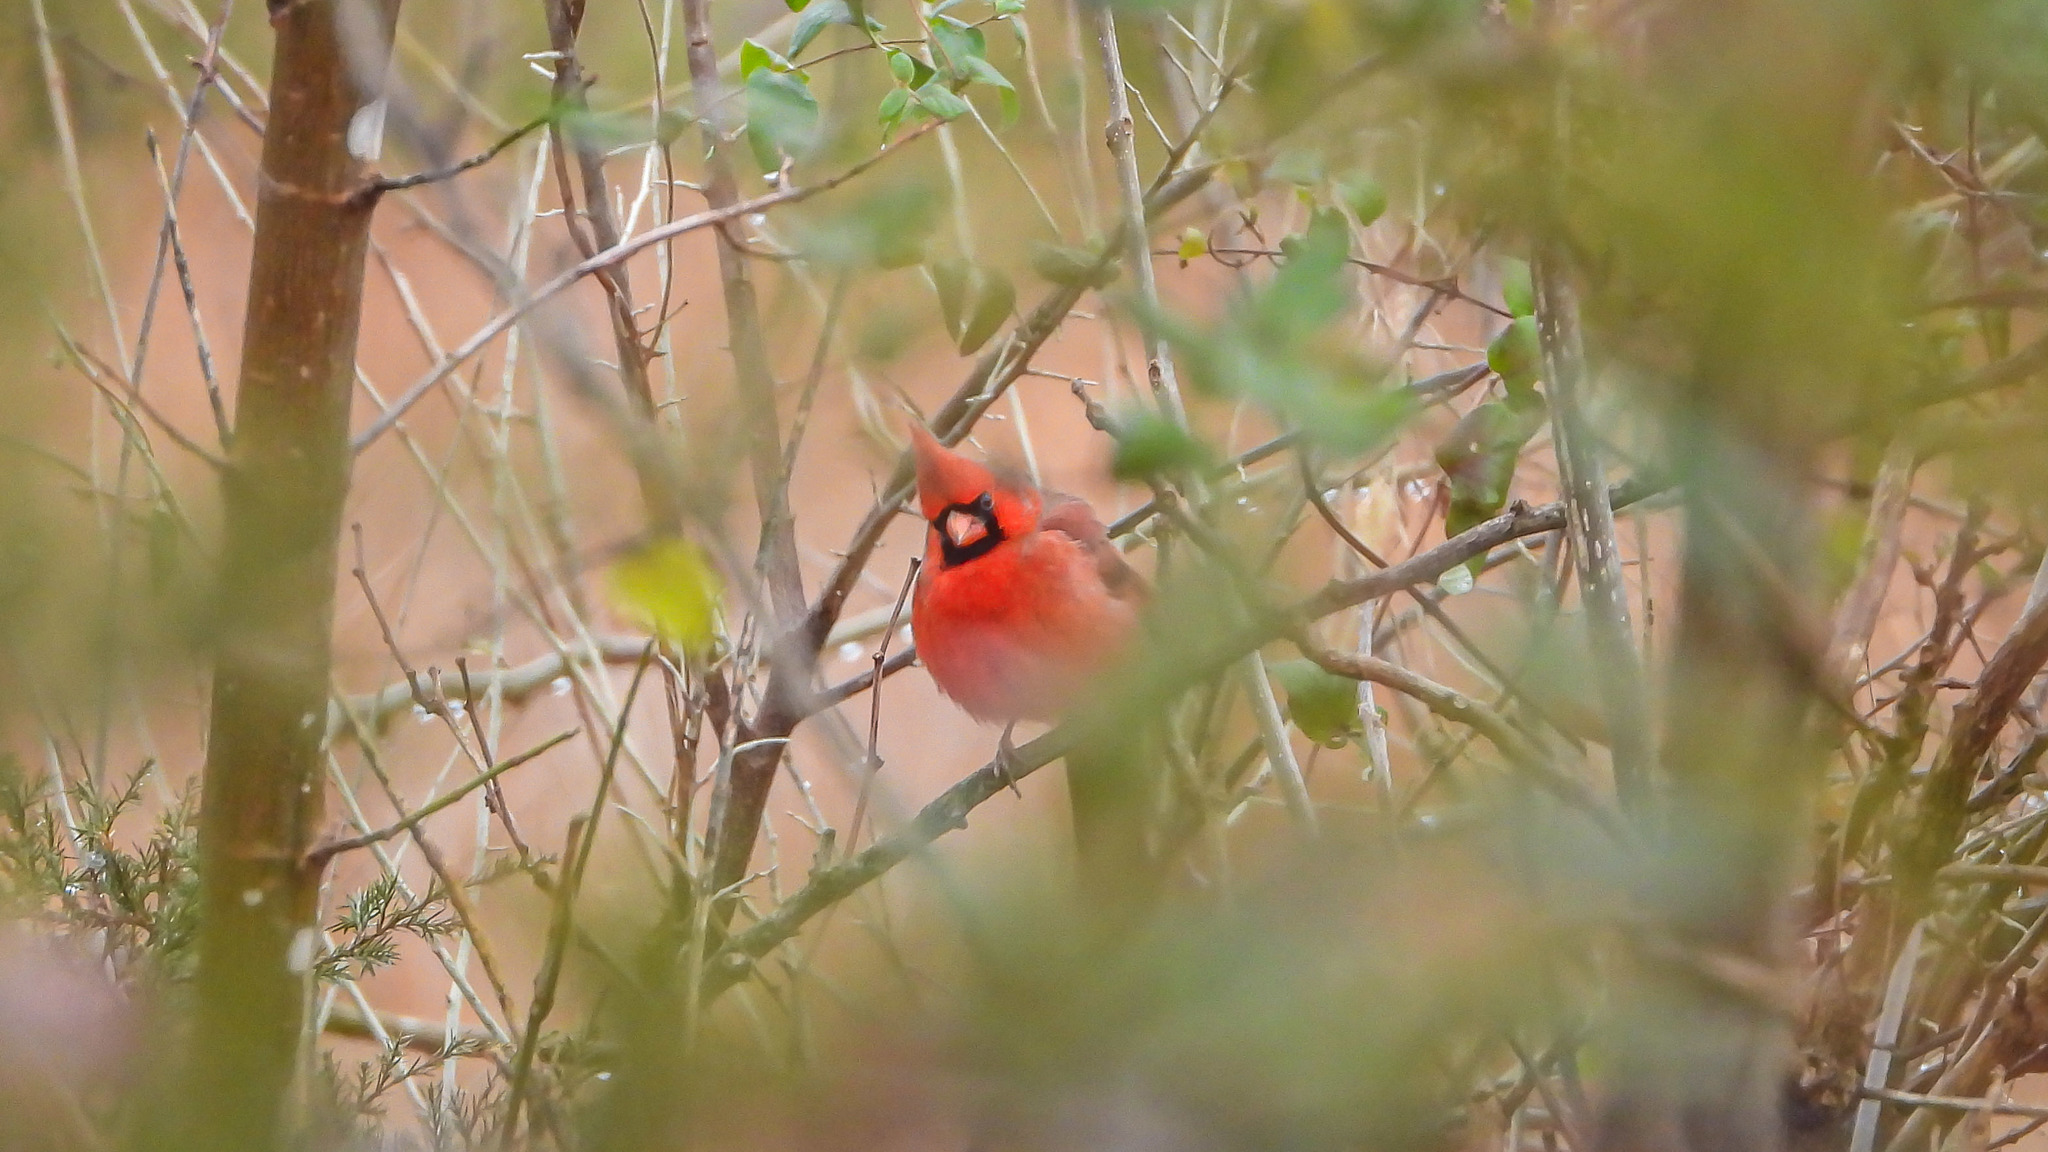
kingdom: Animalia
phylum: Chordata
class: Aves
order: Passeriformes
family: Cardinalidae
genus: Cardinalis
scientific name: Cardinalis cardinalis
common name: Northern cardinal
